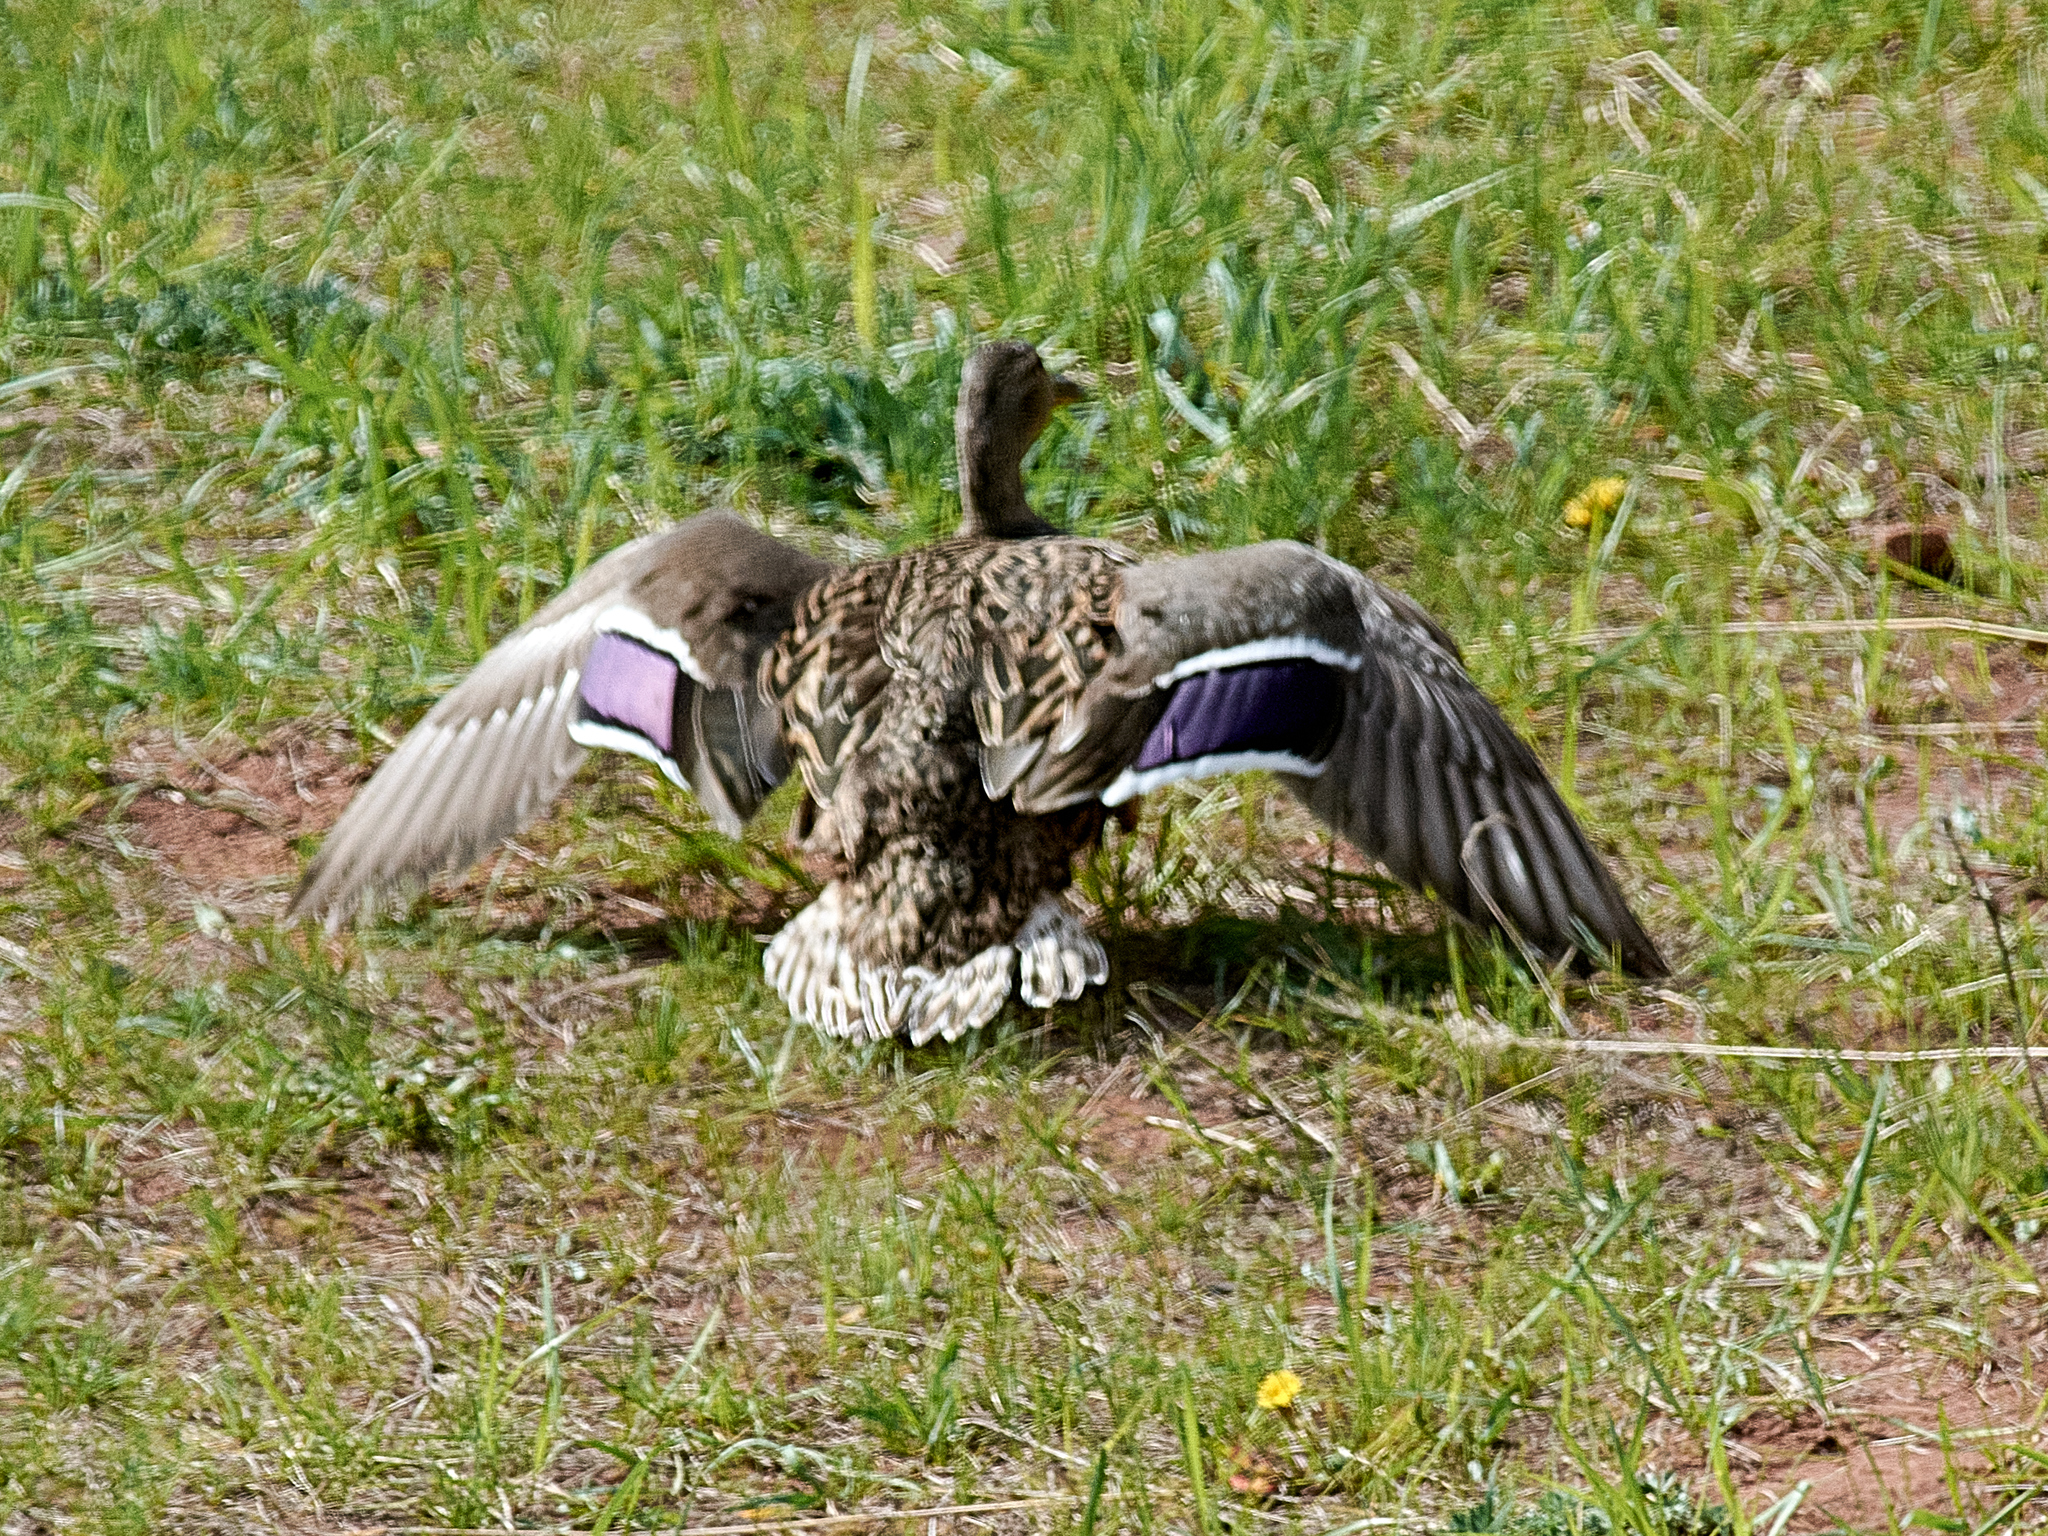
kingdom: Animalia
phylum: Chordata
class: Aves
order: Anseriformes
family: Anatidae
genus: Anas
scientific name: Anas platyrhynchos
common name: Mallard
